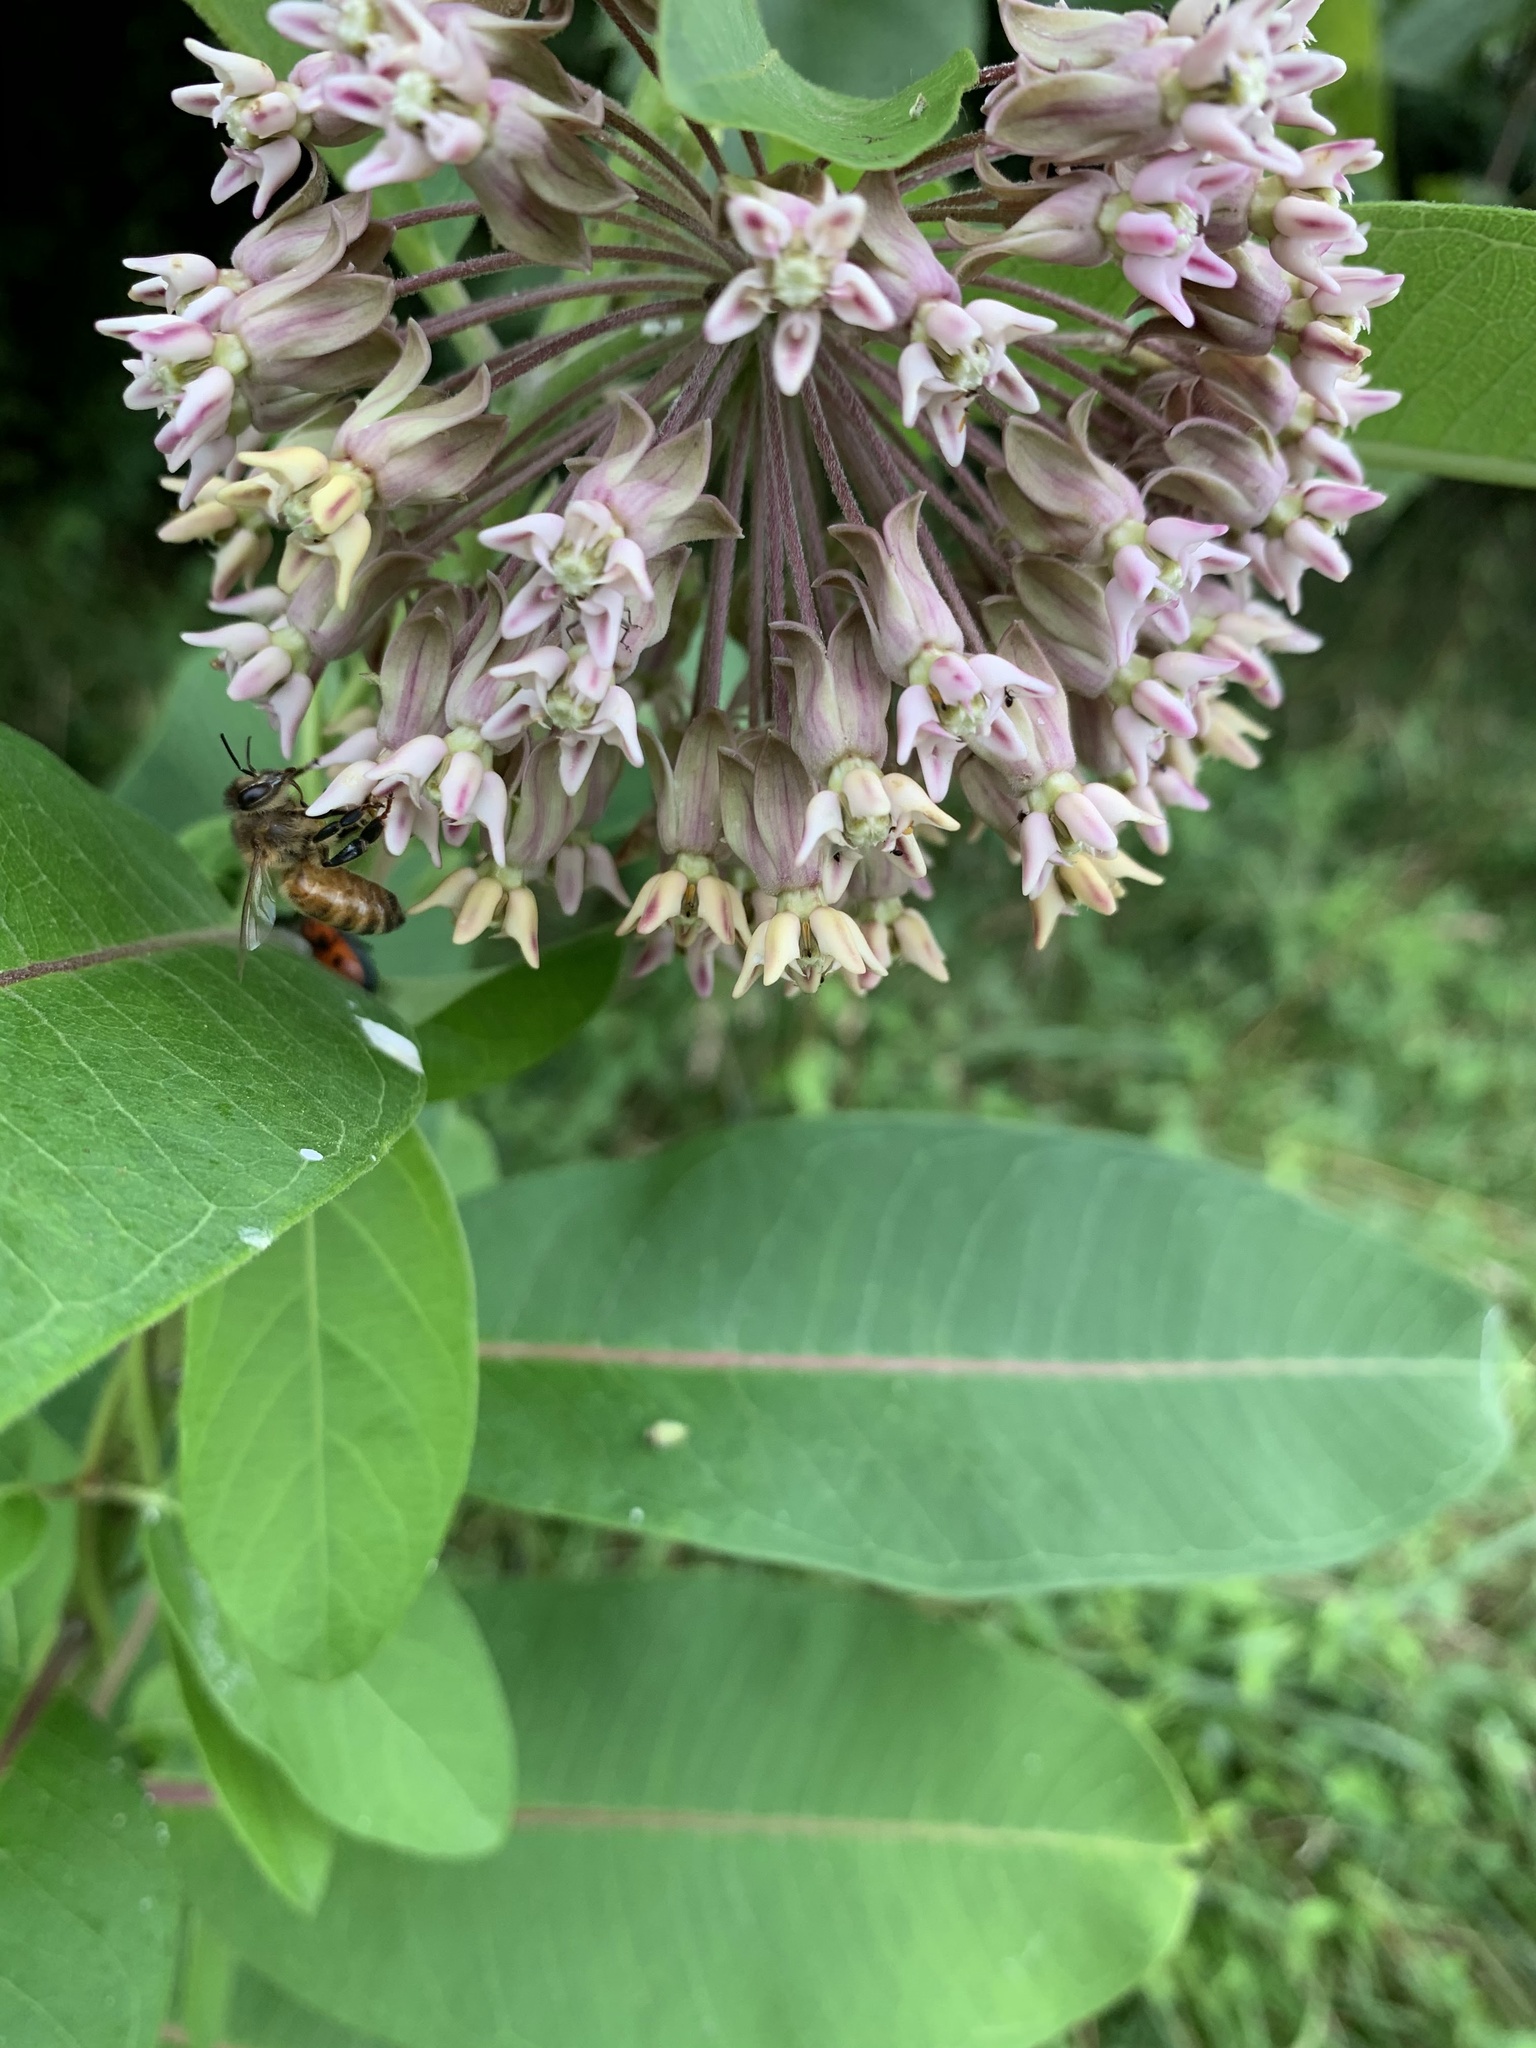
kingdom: Plantae
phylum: Tracheophyta
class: Magnoliopsida
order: Gentianales
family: Apocynaceae
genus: Asclepias
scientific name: Asclepias syriaca
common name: Common milkweed
